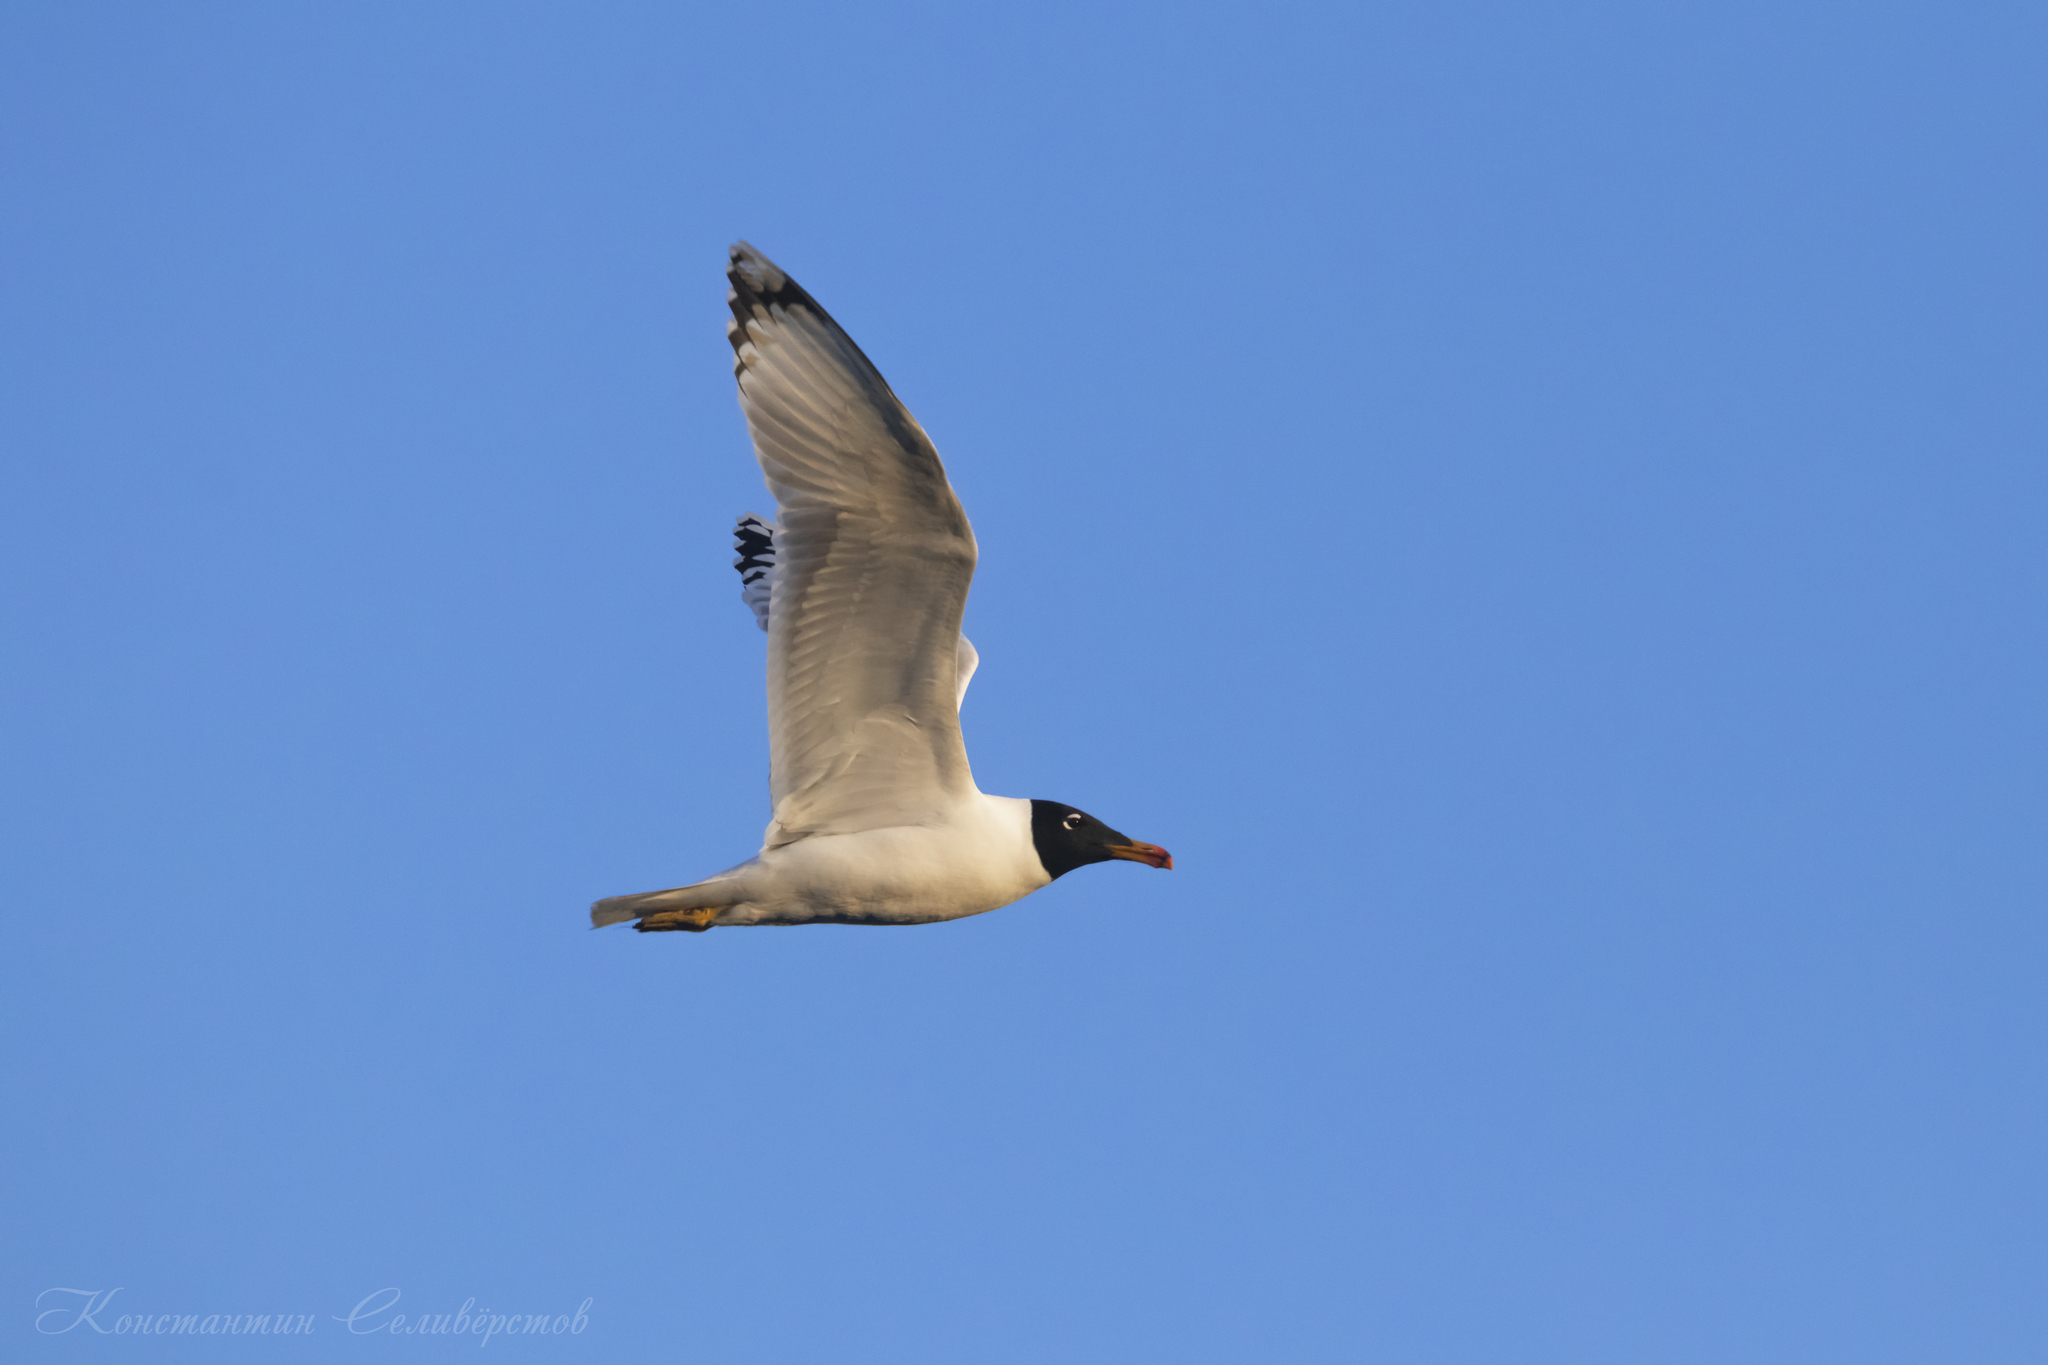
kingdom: Animalia
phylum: Chordata
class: Aves
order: Charadriiformes
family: Laridae
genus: Ichthyaetus
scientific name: Ichthyaetus ichthyaetus
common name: Pallas's gull
